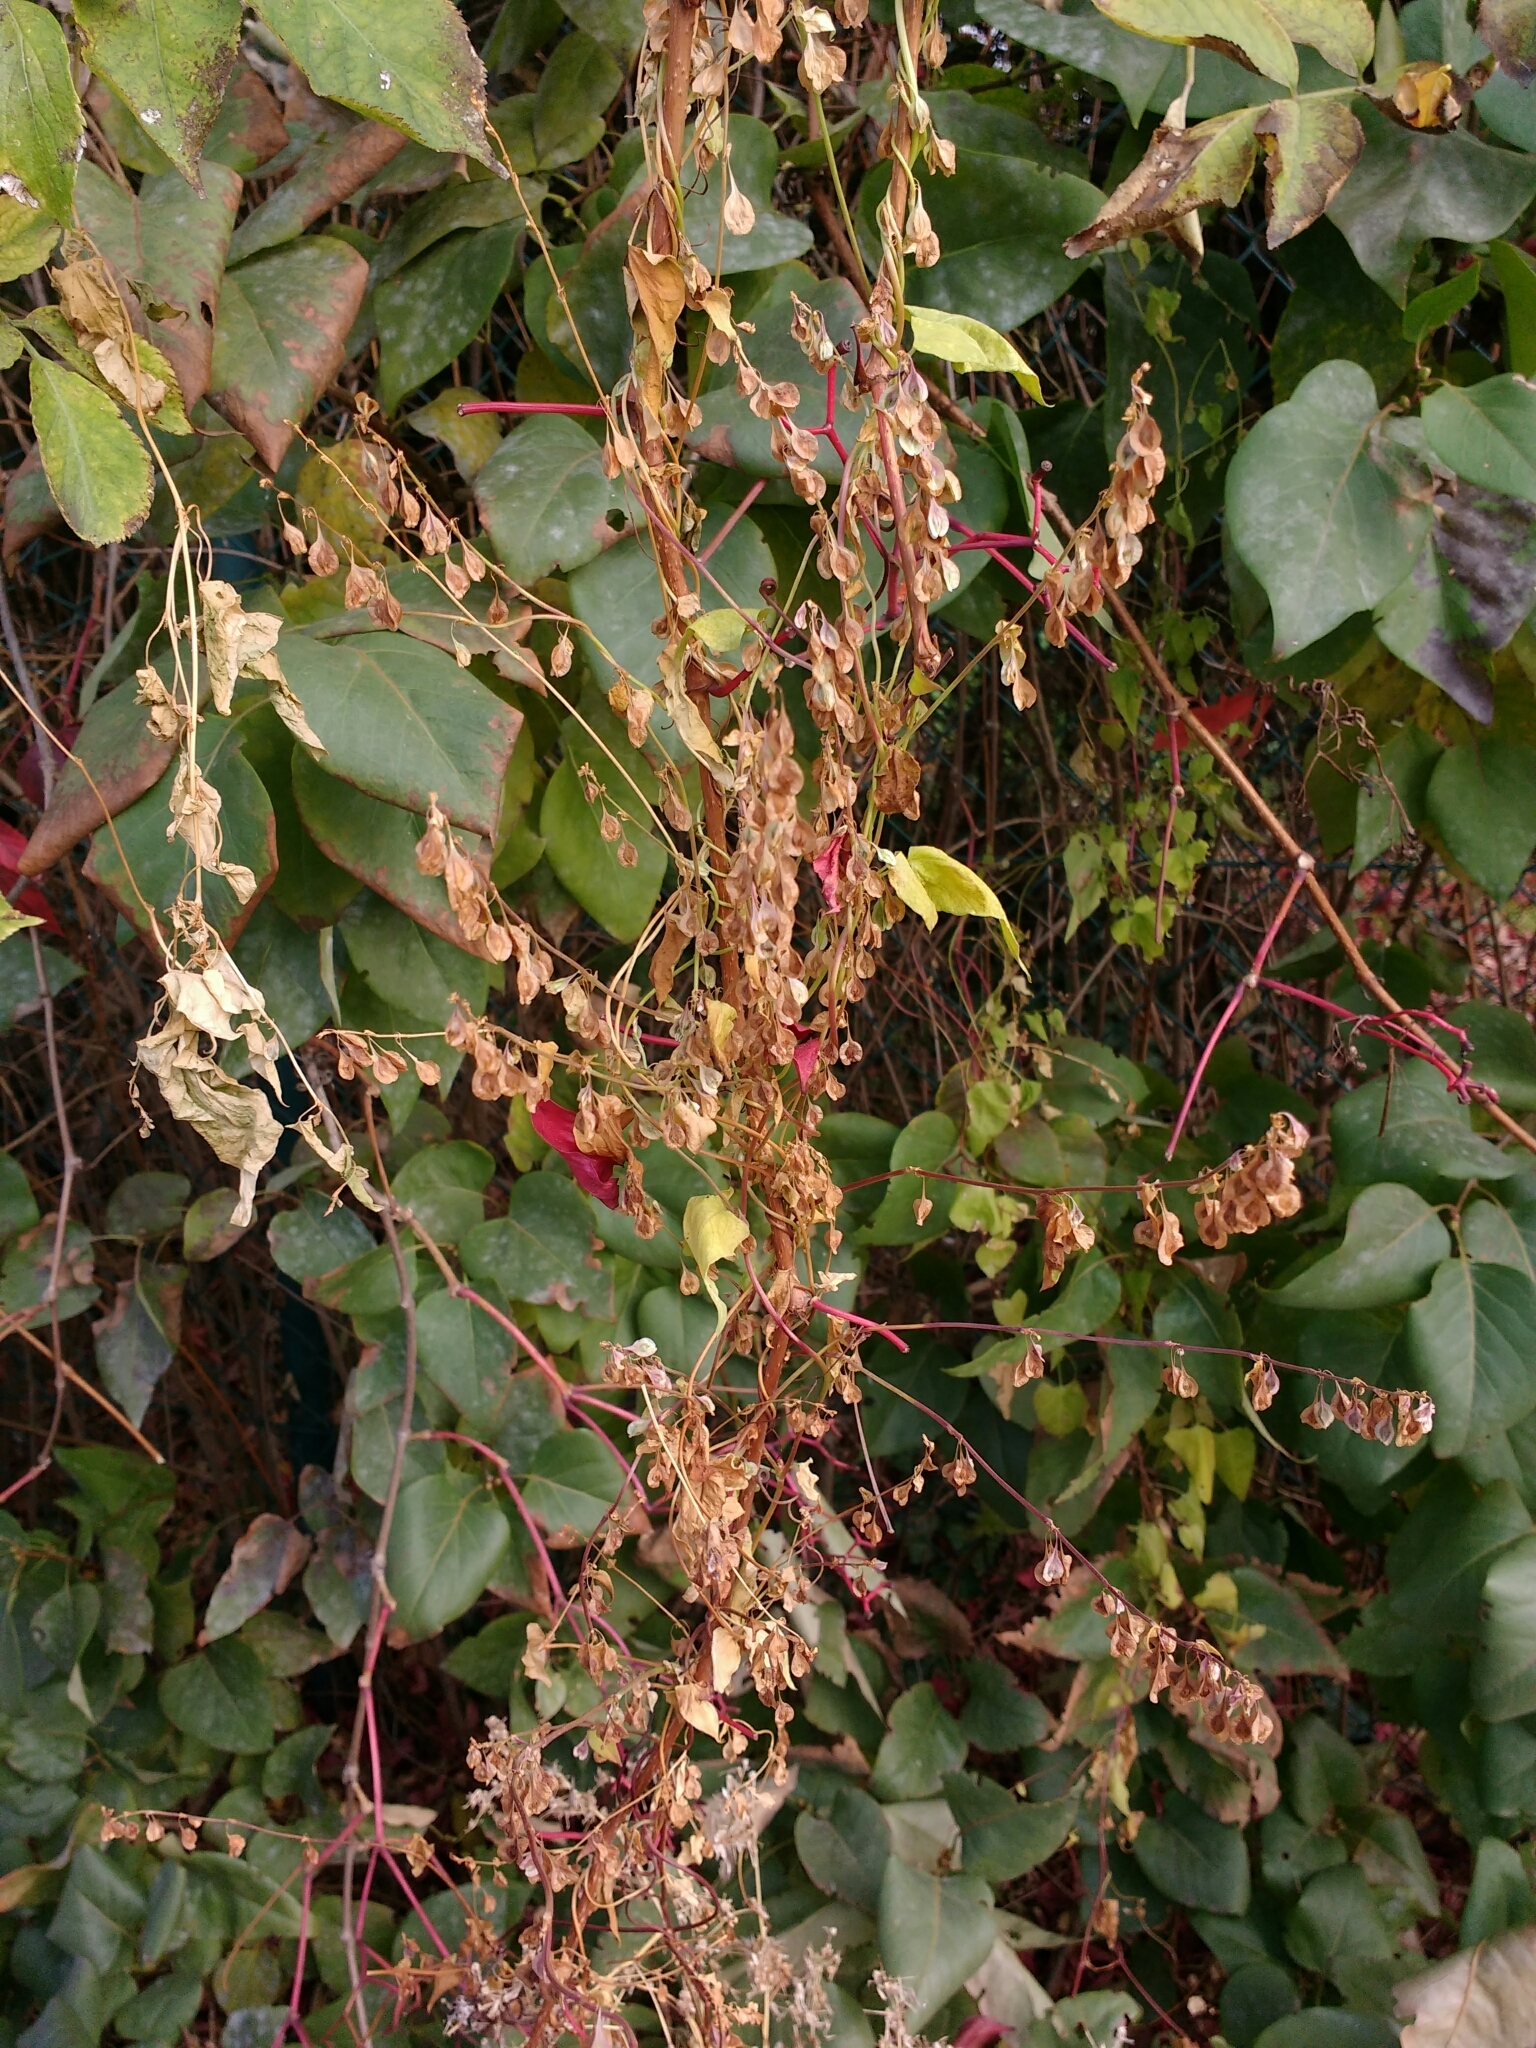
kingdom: Plantae
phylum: Tracheophyta
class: Magnoliopsida
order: Caryophyllales
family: Polygonaceae
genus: Fallopia
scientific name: Fallopia dumetorum
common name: Copse-bindweed
